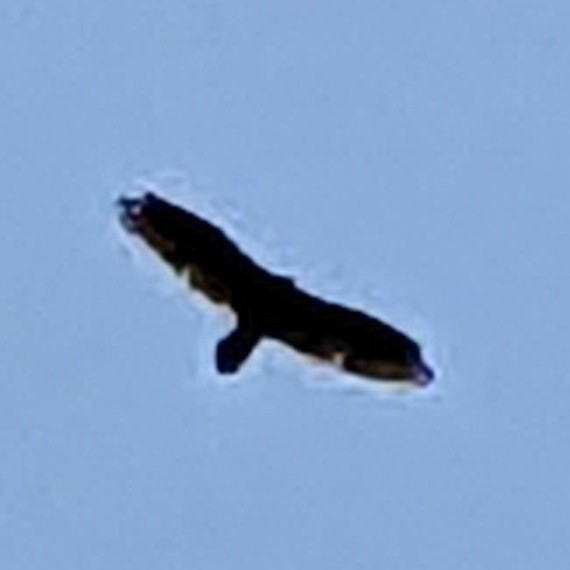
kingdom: Animalia
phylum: Chordata
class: Aves
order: Accipitriformes
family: Cathartidae
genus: Cathartes
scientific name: Cathartes aura
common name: Turkey vulture
